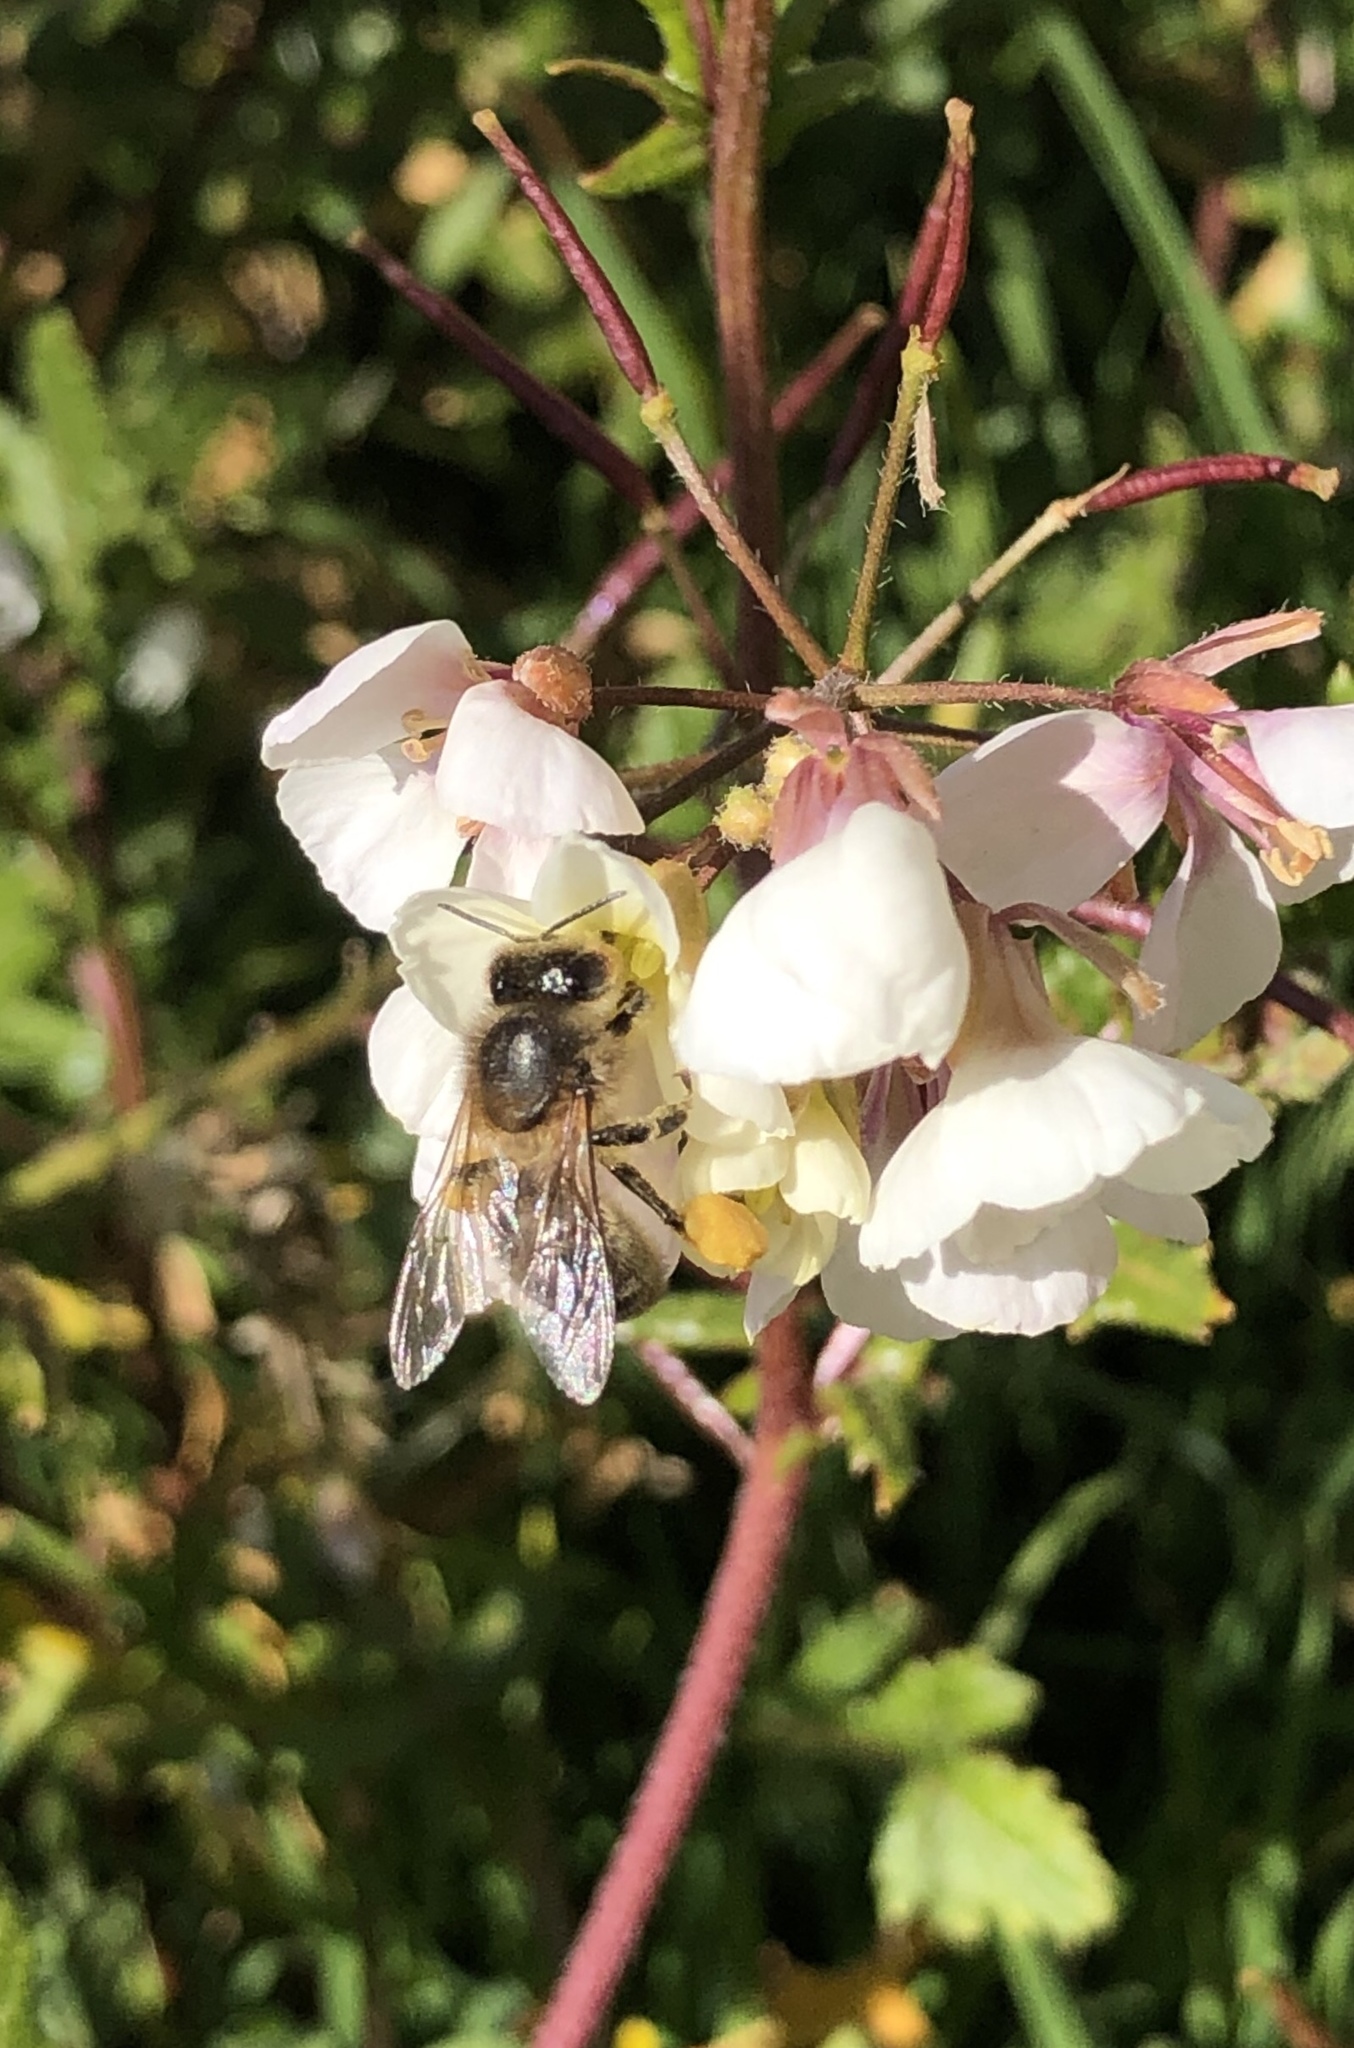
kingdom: Animalia
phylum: Arthropoda
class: Insecta
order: Hymenoptera
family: Apidae
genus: Apis
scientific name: Apis mellifera
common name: Honey bee
